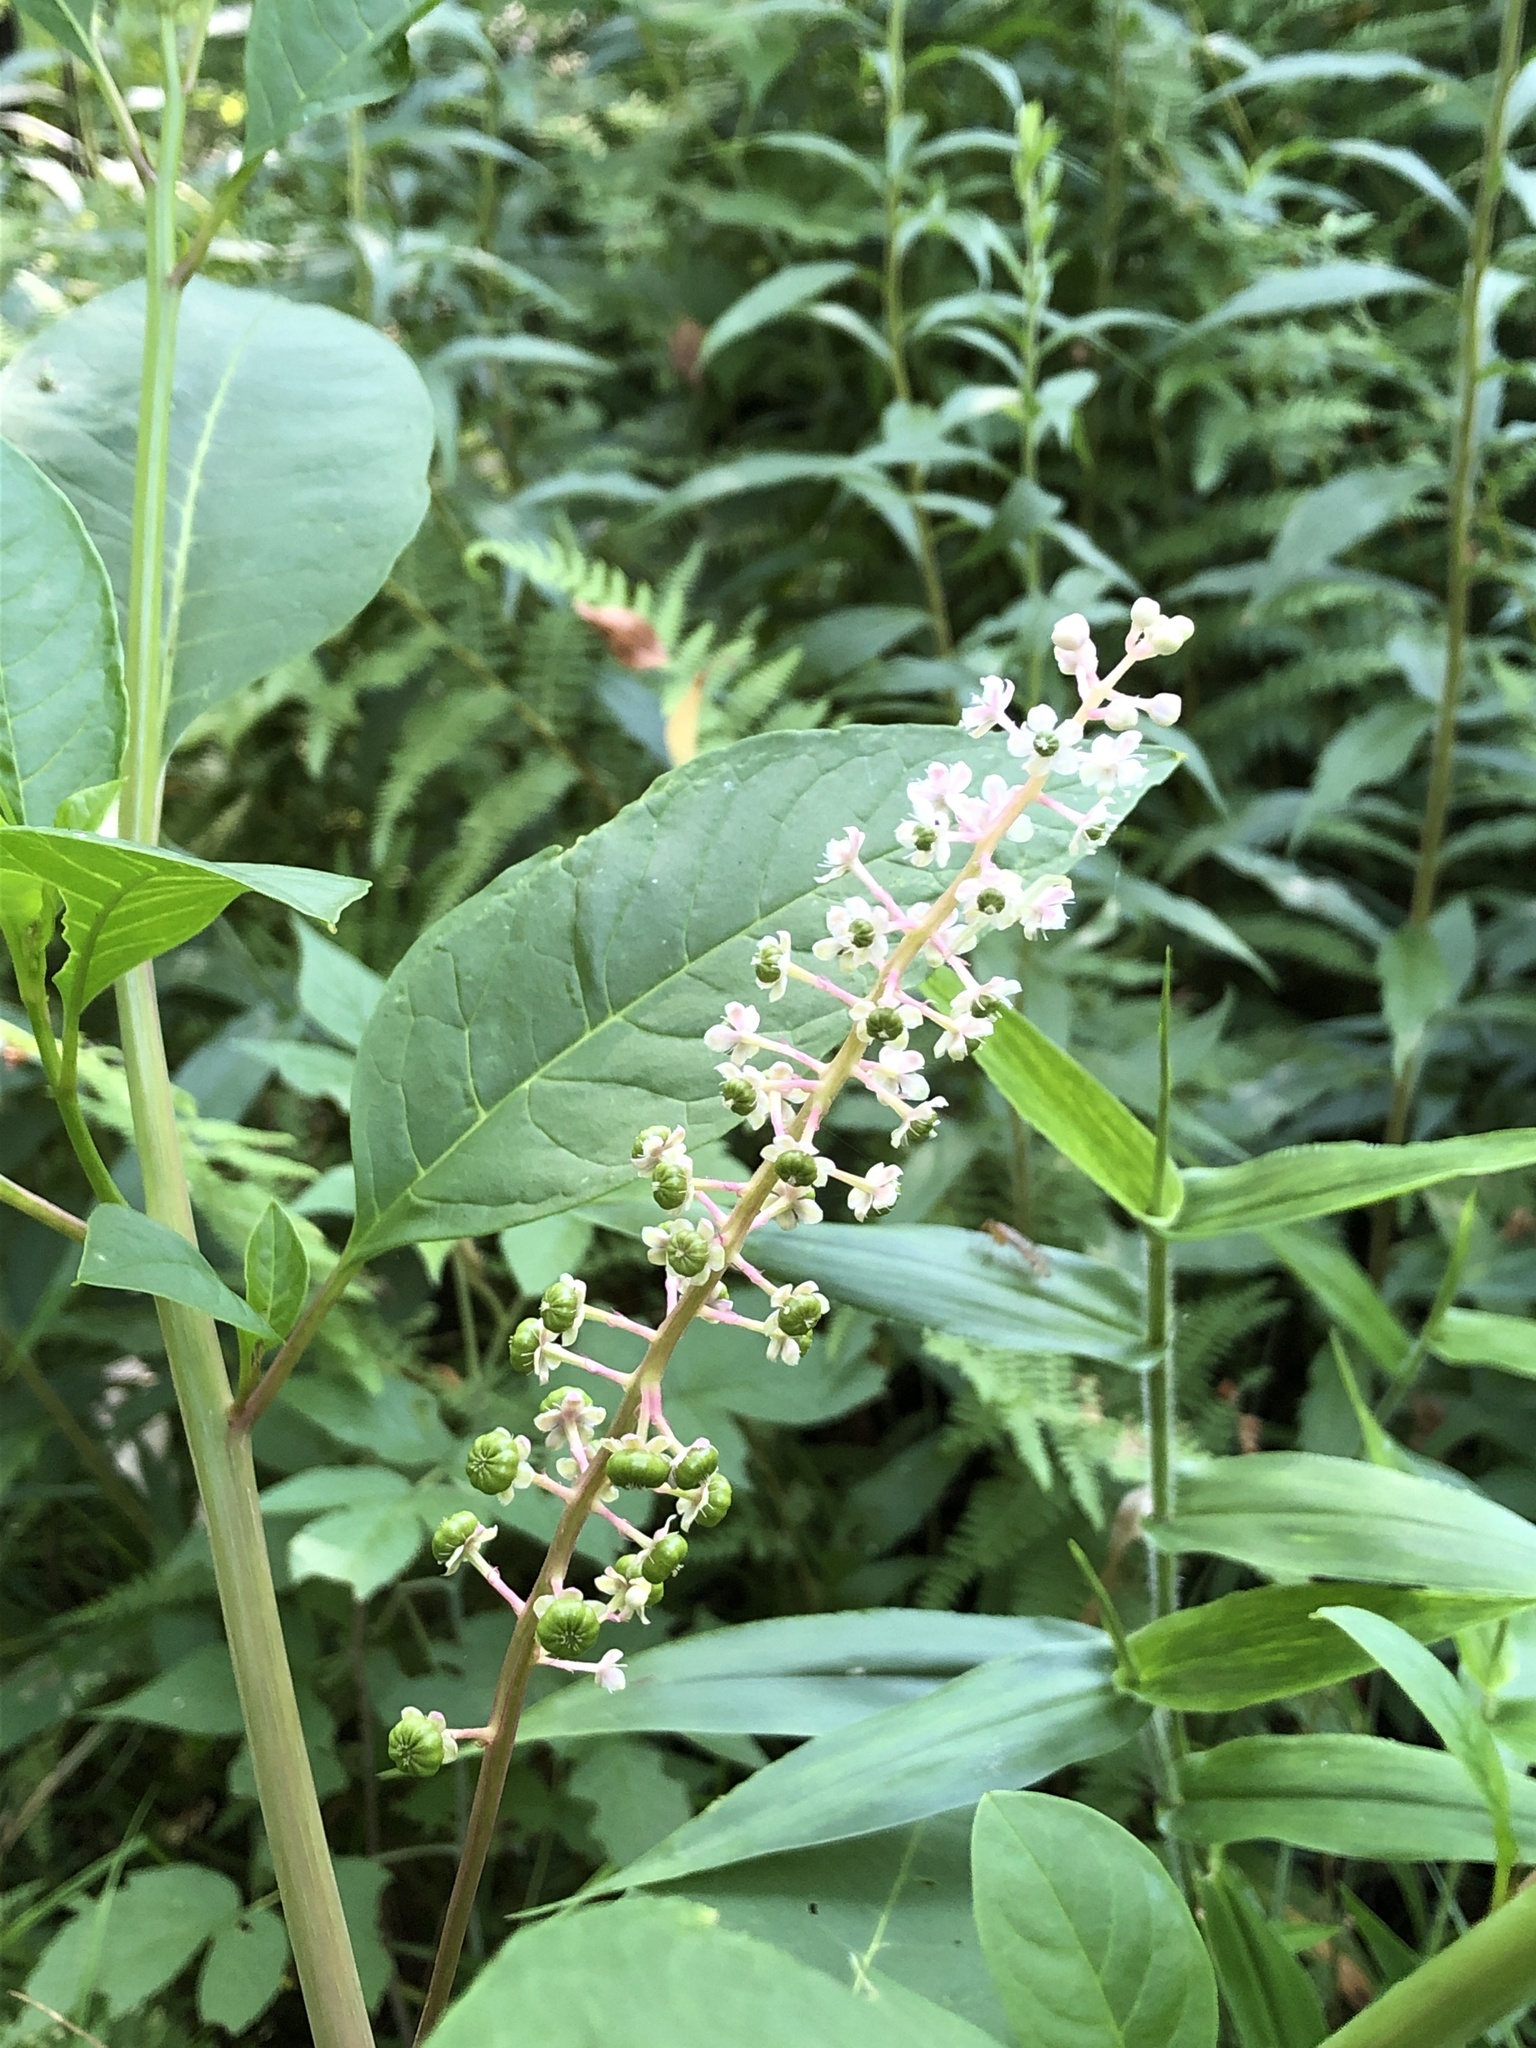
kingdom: Plantae
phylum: Tracheophyta
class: Magnoliopsida
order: Caryophyllales
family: Phytolaccaceae
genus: Phytolacca
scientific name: Phytolacca americana
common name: American pokeweed
